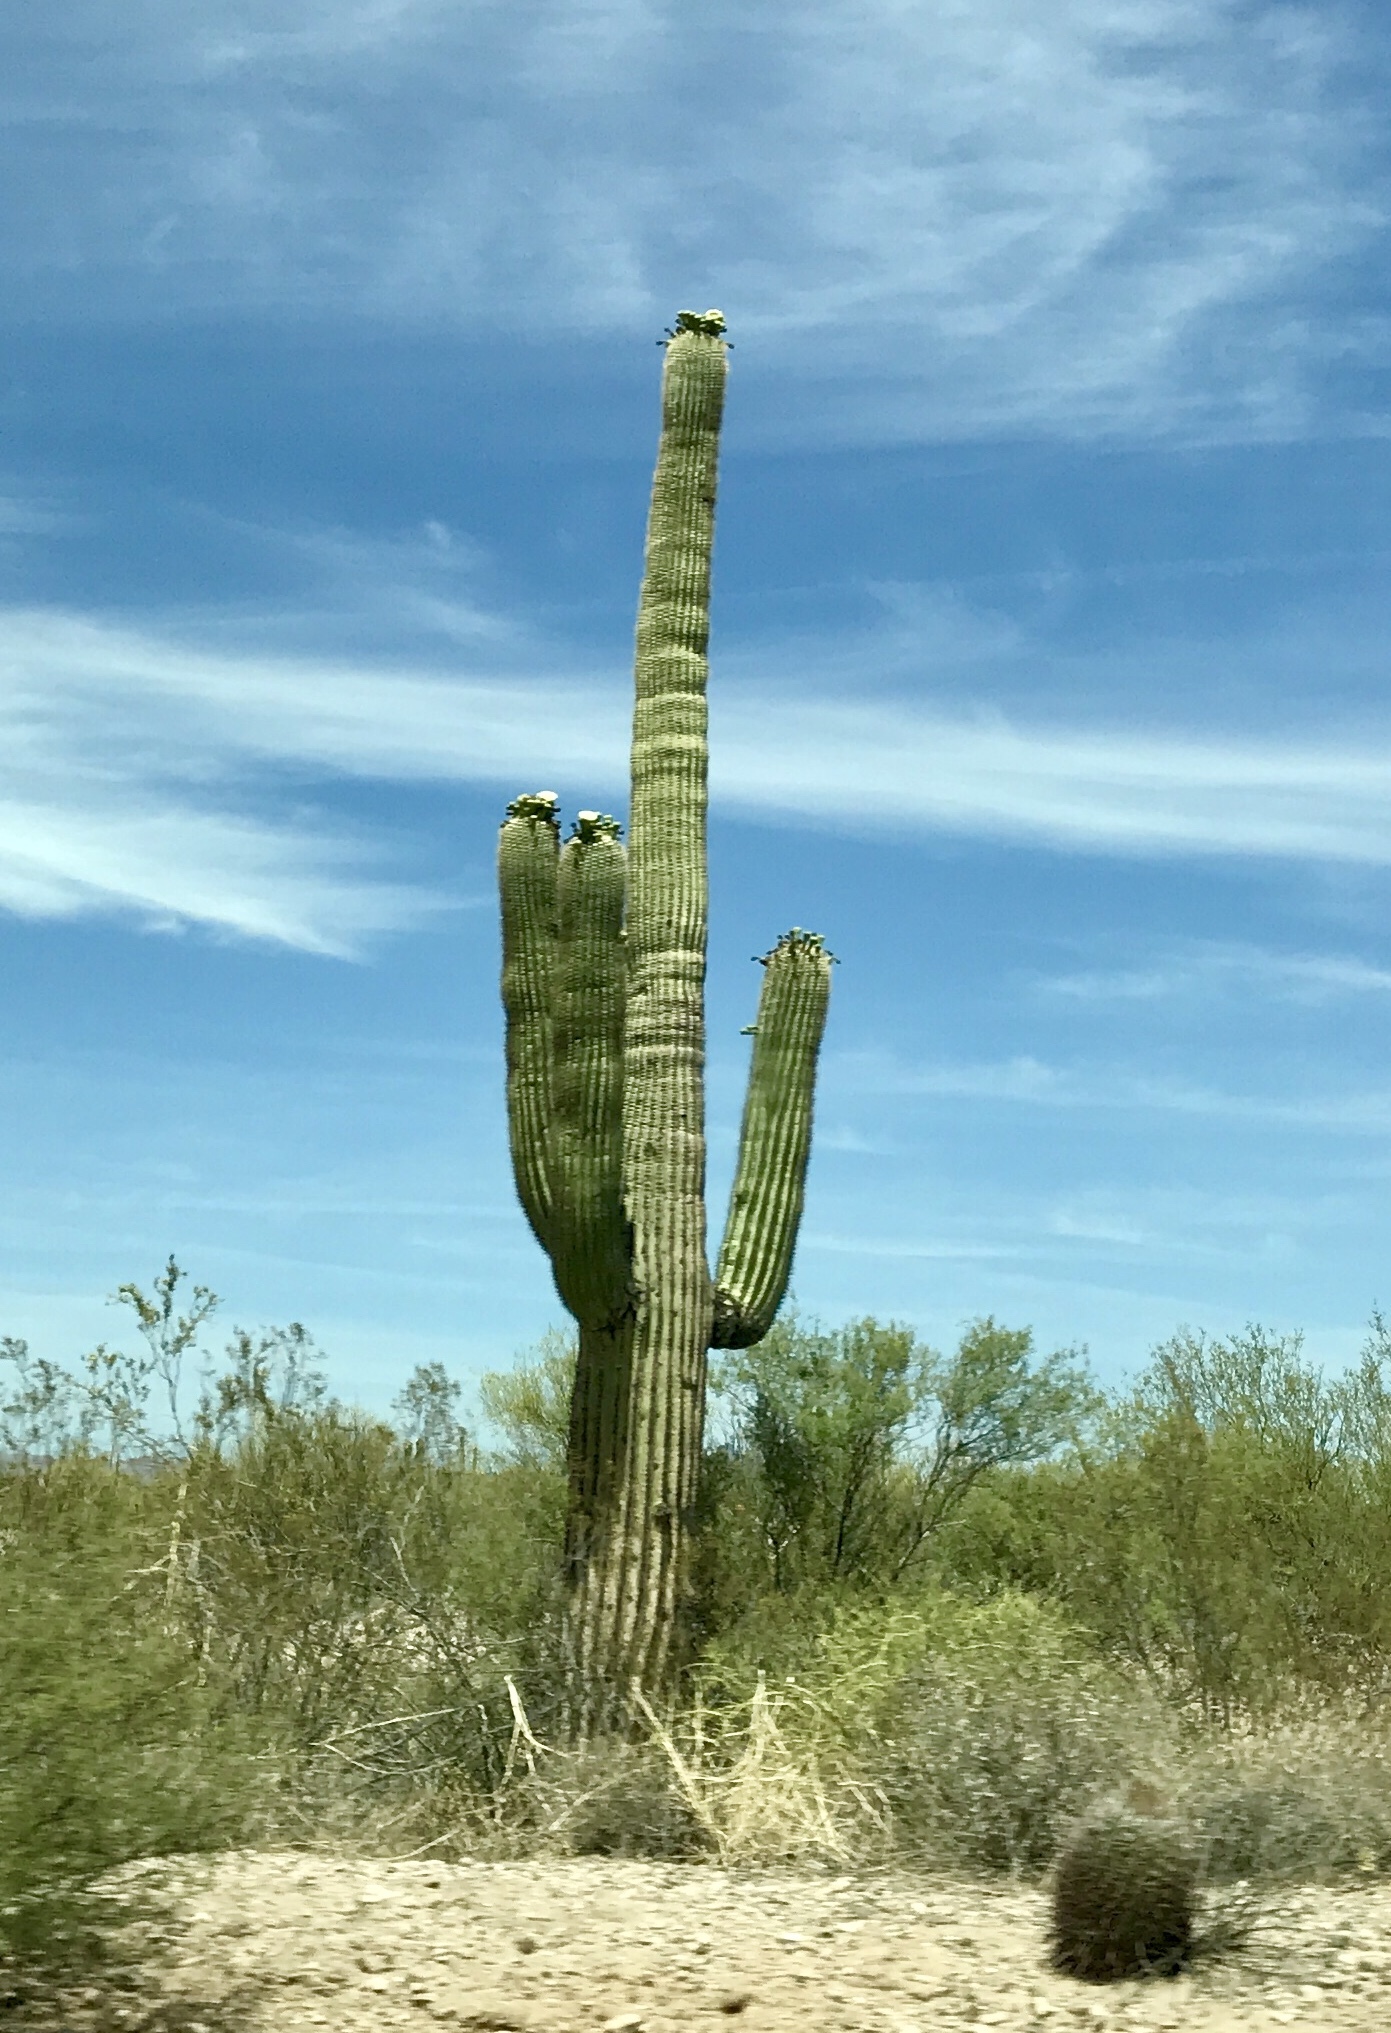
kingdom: Plantae
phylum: Tracheophyta
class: Magnoliopsida
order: Caryophyllales
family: Cactaceae
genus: Carnegiea
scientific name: Carnegiea gigantea
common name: Saguaro
